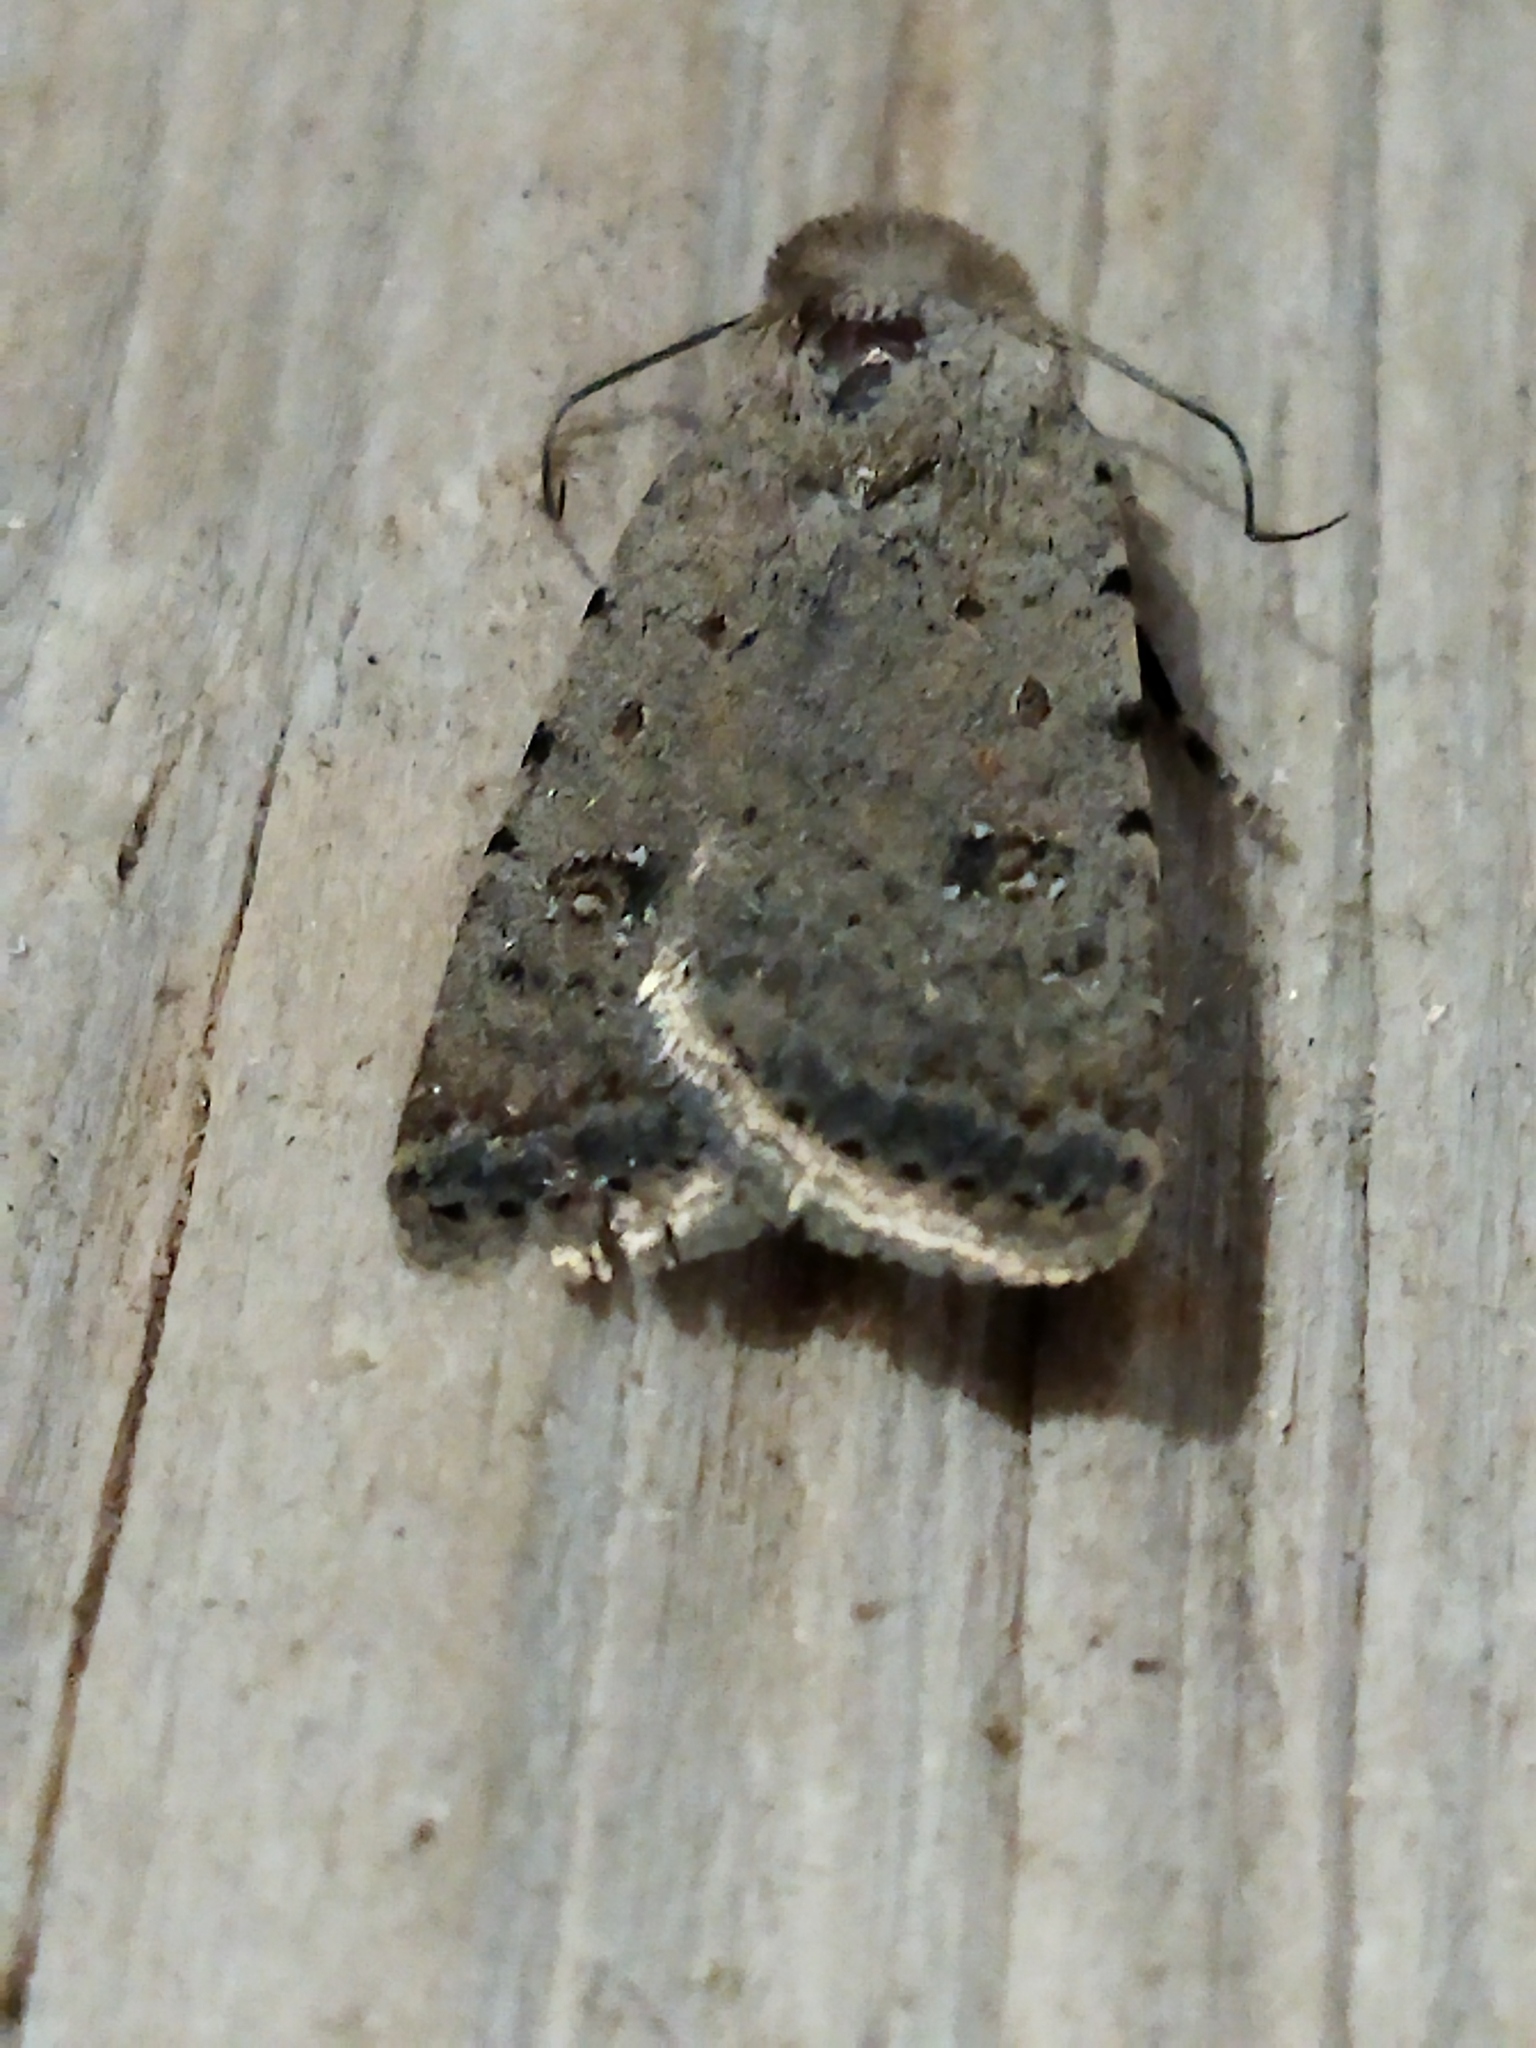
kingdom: Animalia
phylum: Arthropoda
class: Insecta
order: Lepidoptera
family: Noctuidae
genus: Caradrina
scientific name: Caradrina clavipalpis
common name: Pale mottled willow
